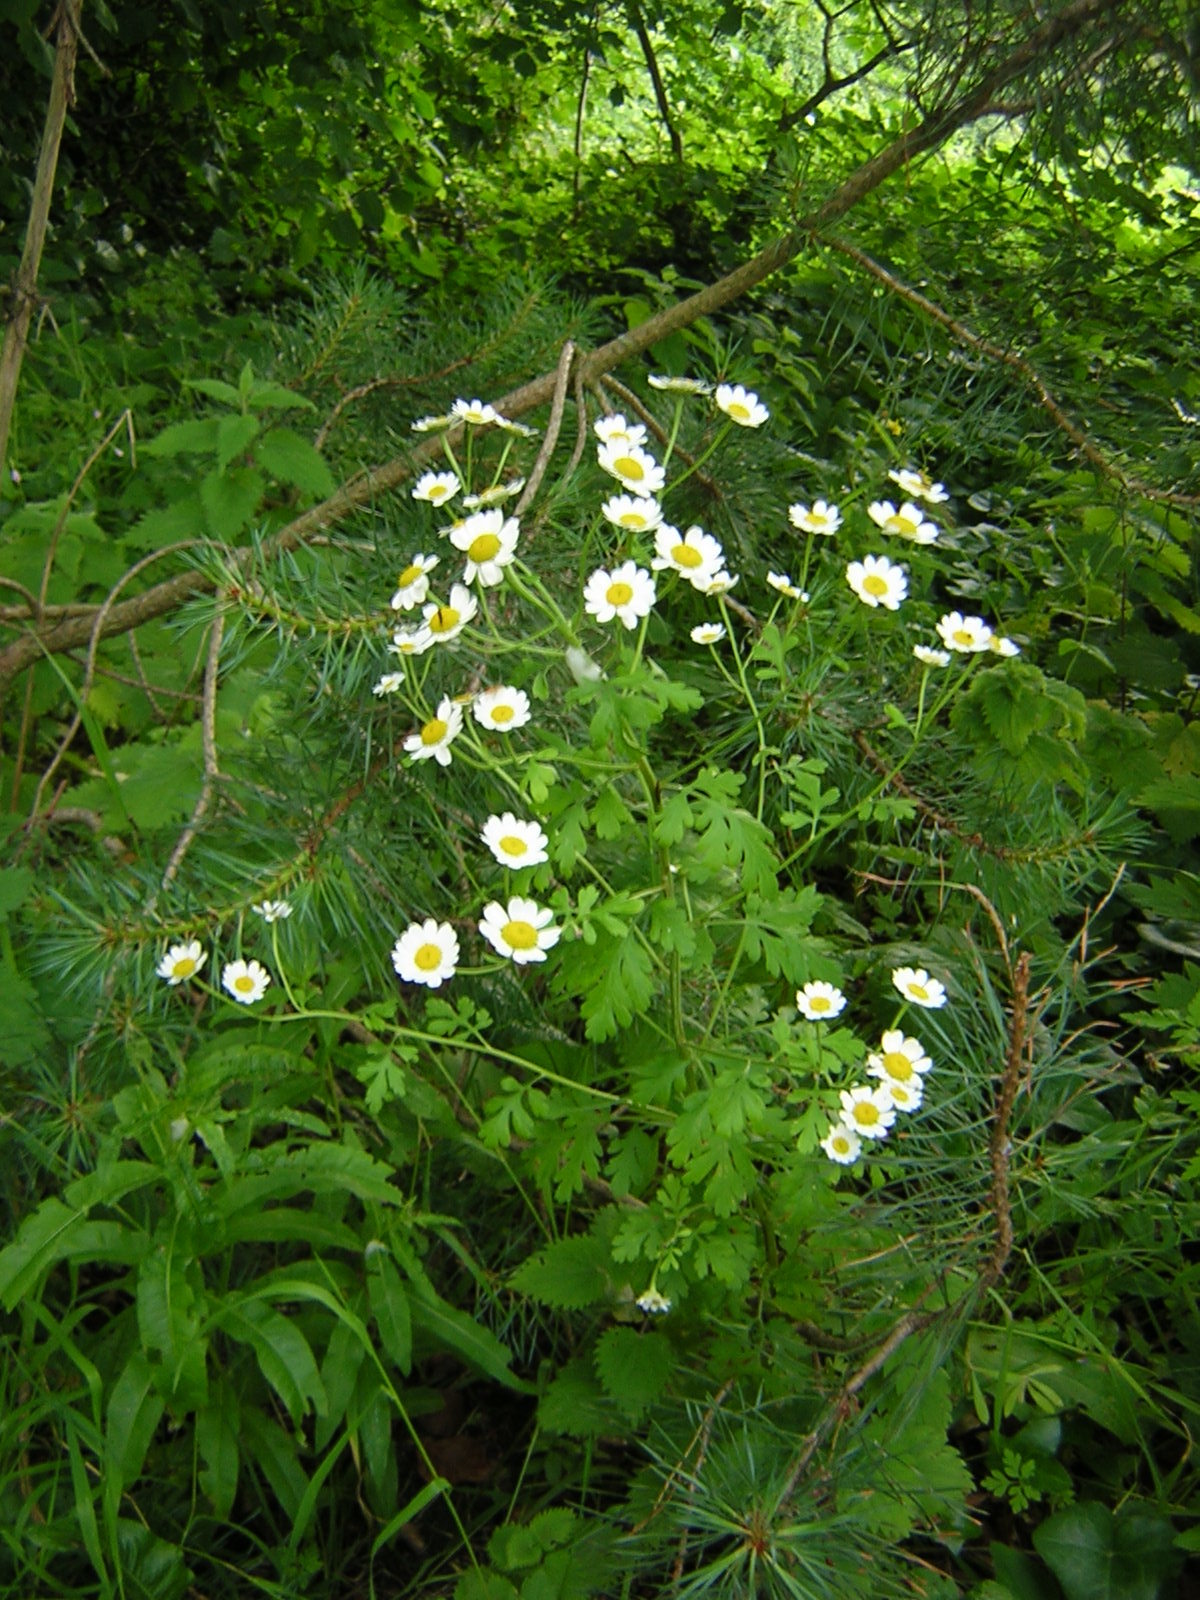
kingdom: Plantae
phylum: Tracheophyta
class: Magnoliopsida
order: Asterales
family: Asteraceae
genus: Tanacetum
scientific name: Tanacetum parthenium
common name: Feverfew
